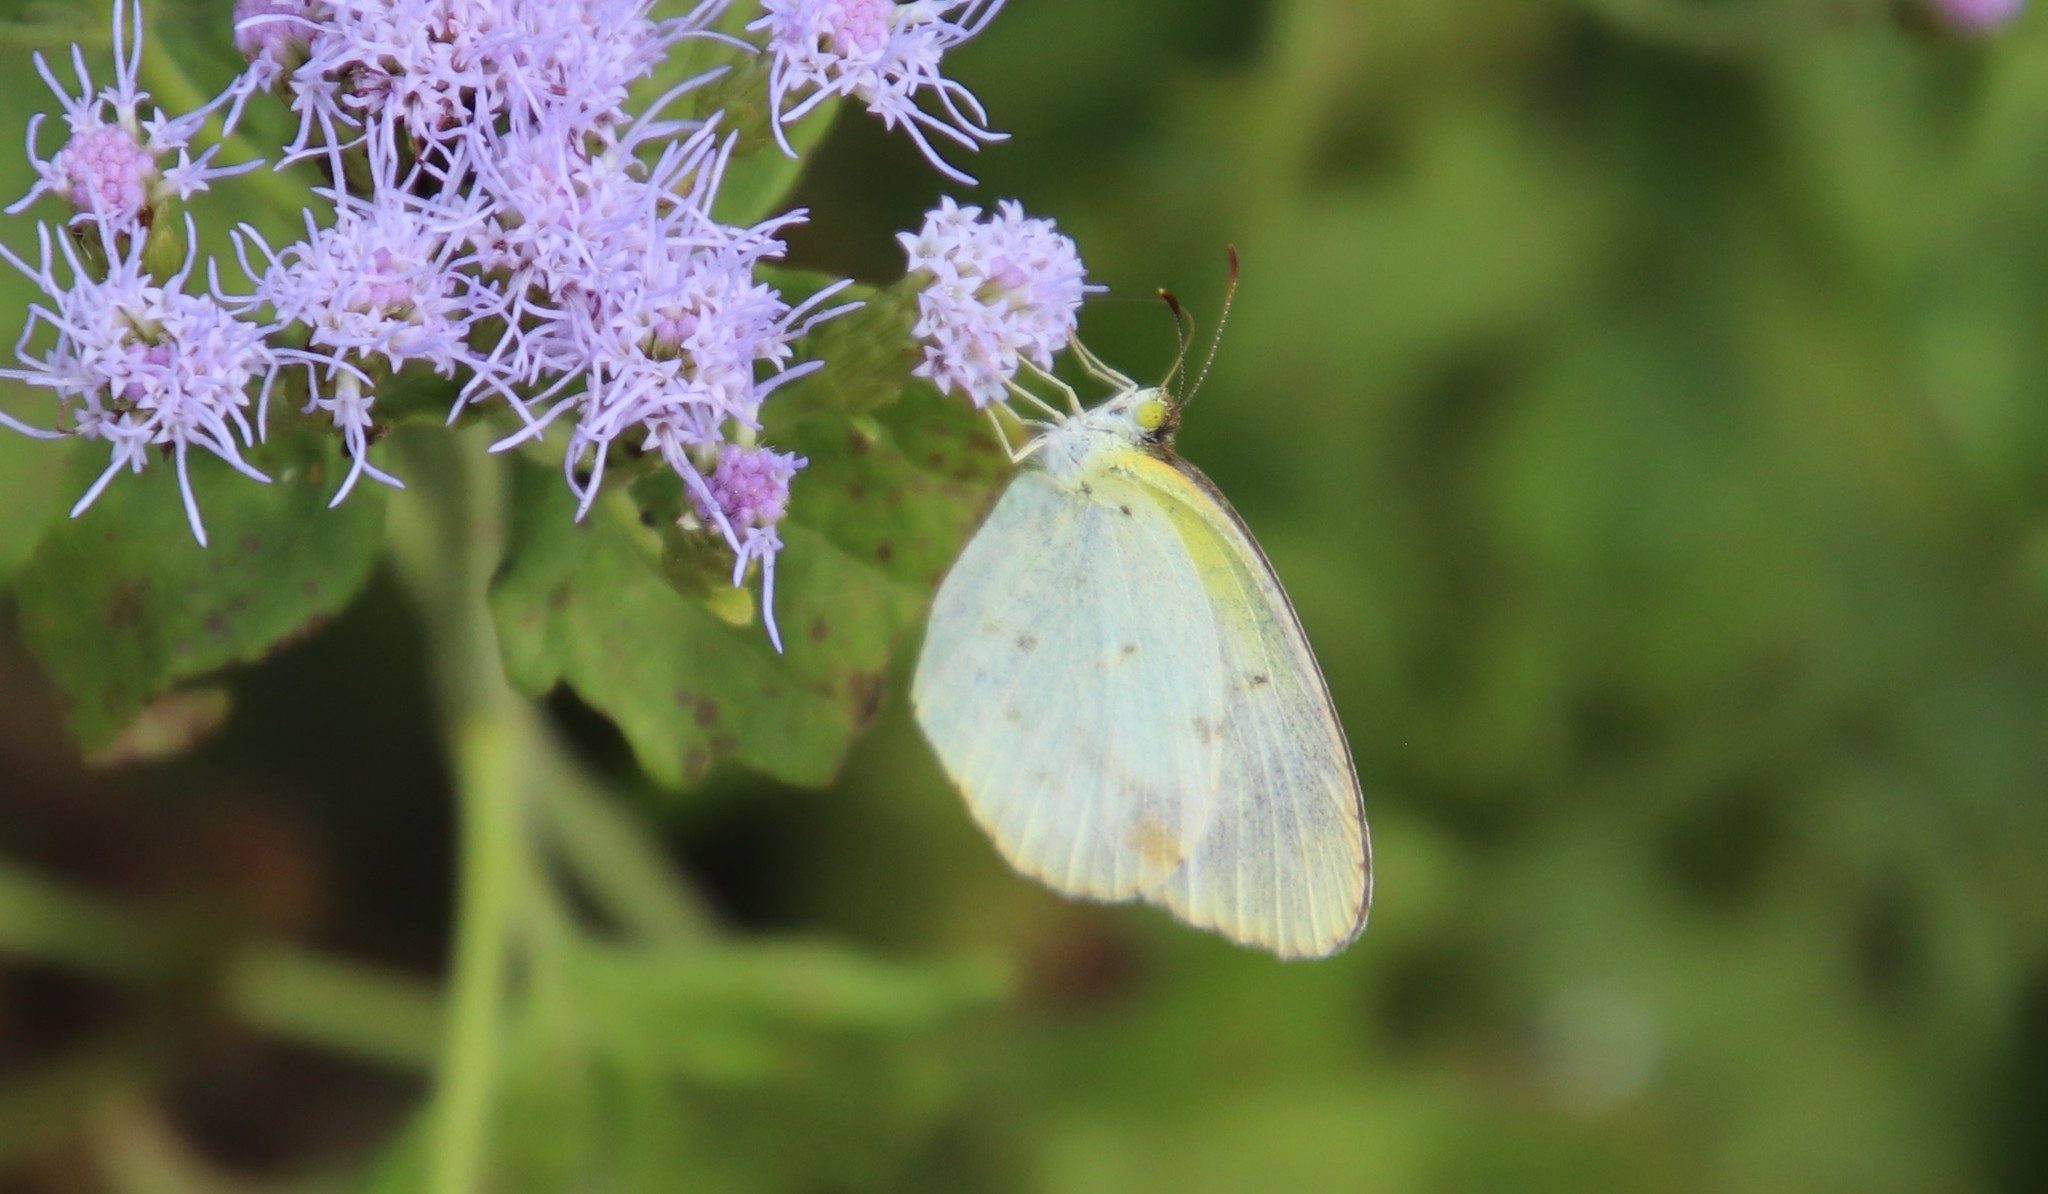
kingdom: Animalia
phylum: Arthropoda
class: Insecta
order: Lepidoptera
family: Pieridae
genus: Pyrisitia
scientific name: Pyrisitia lisa
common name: Little yellow
